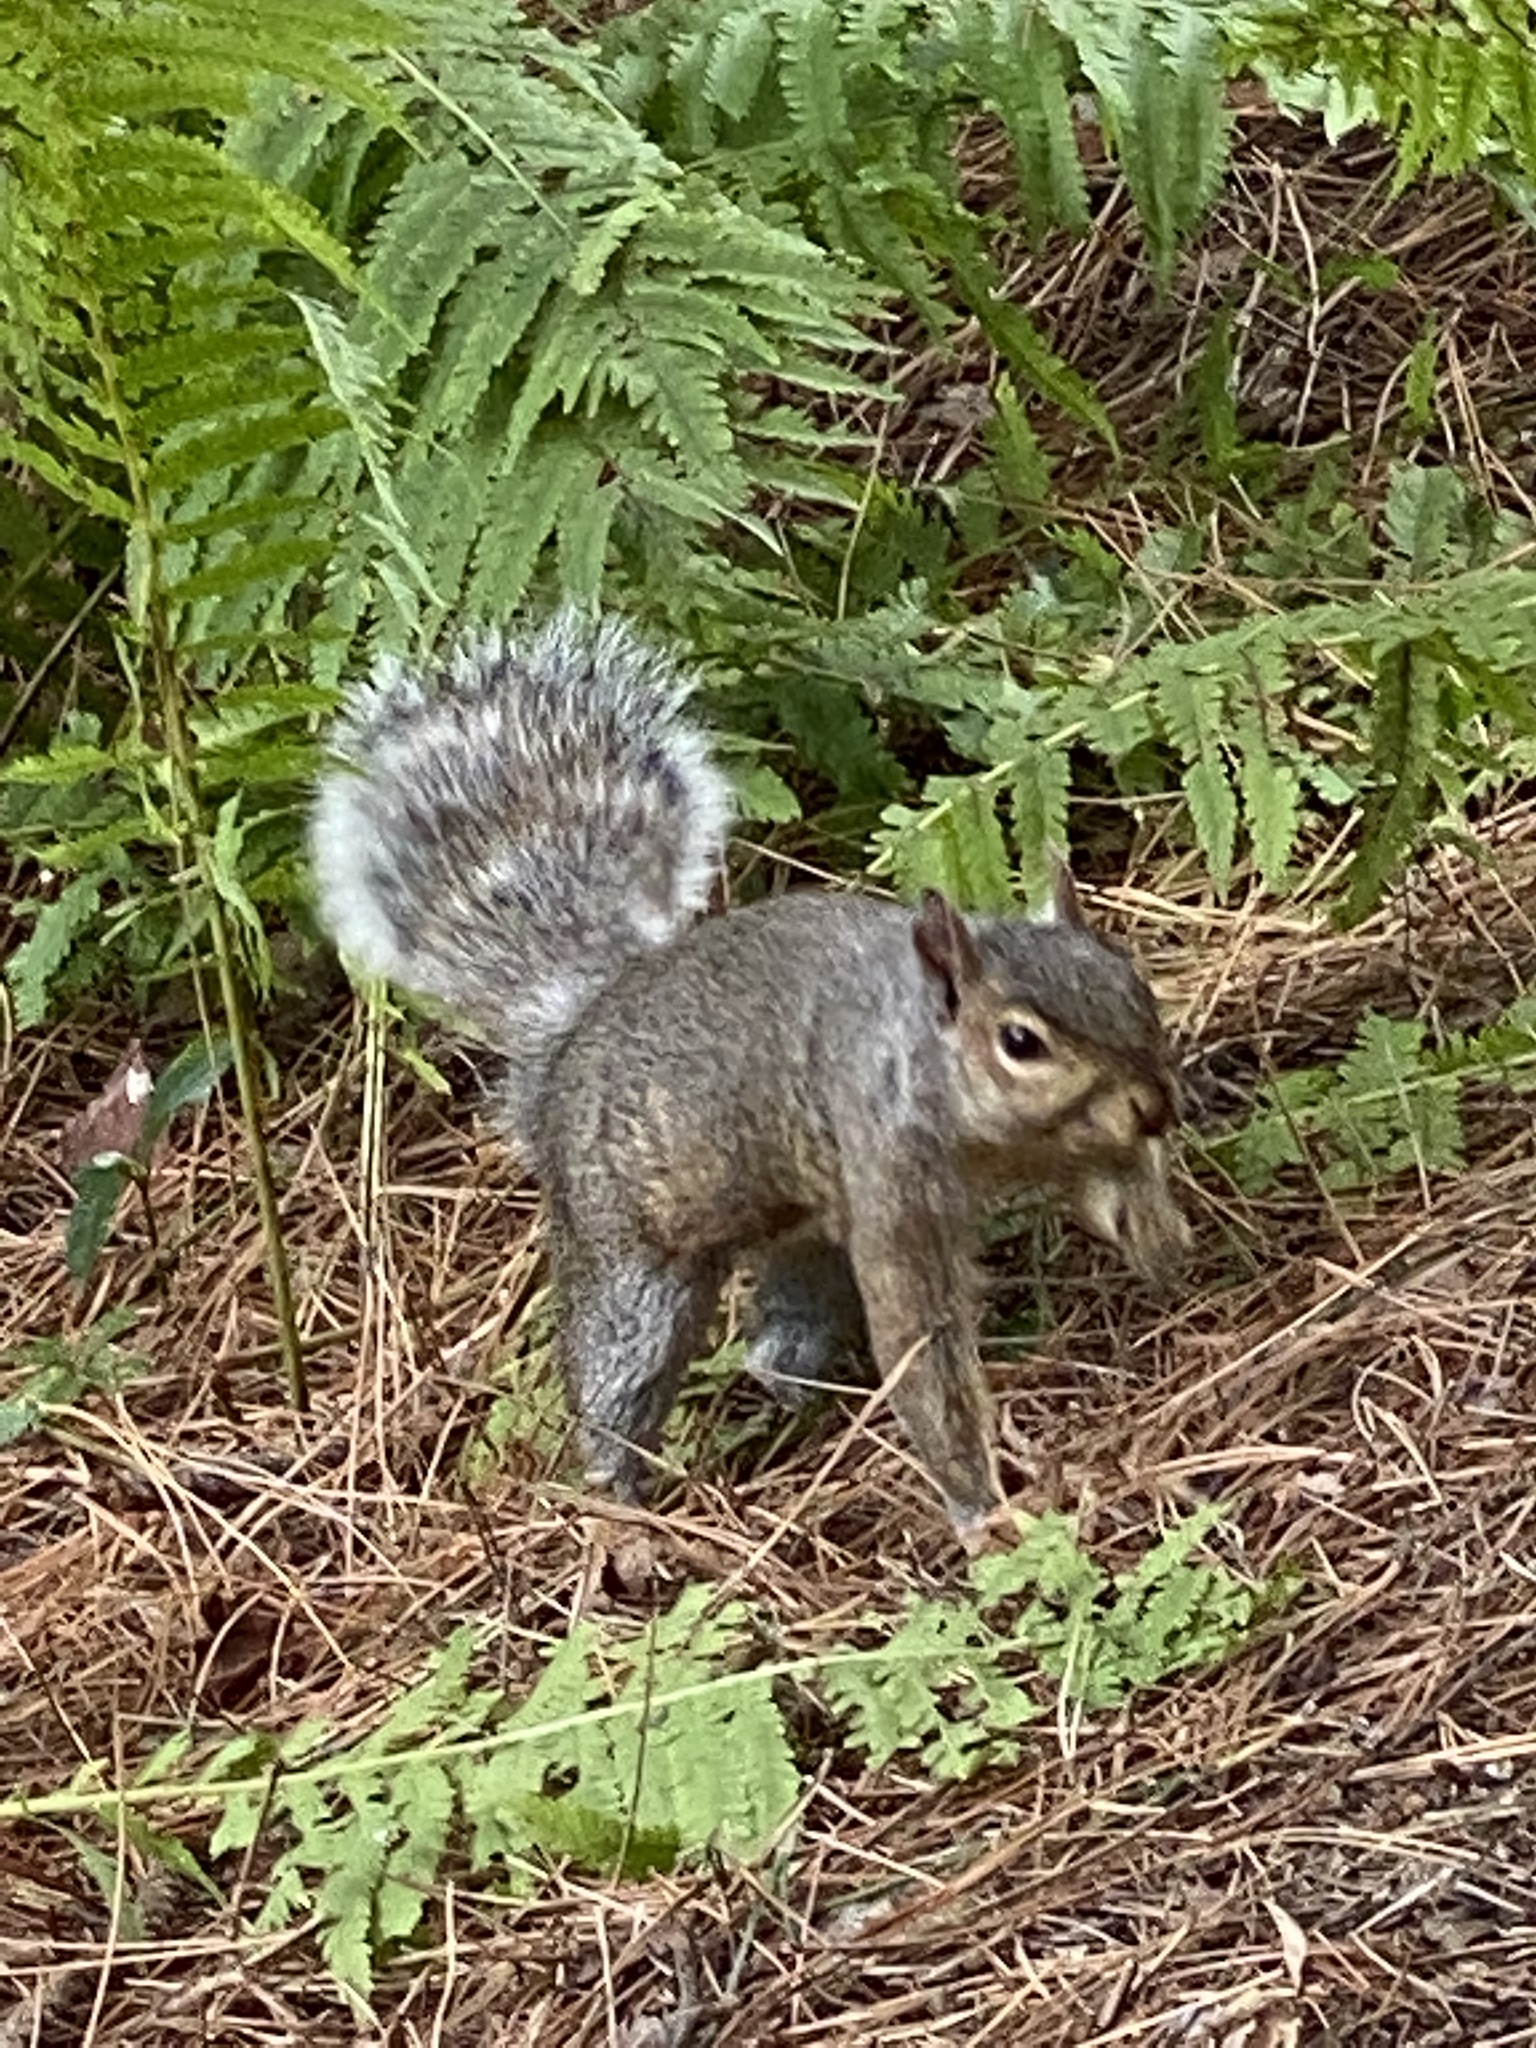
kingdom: Animalia
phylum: Chordata
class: Mammalia
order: Rodentia
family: Sciuridae
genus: Sciurus
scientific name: Sciurus carolinensis
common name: Eastern gray squirrel
